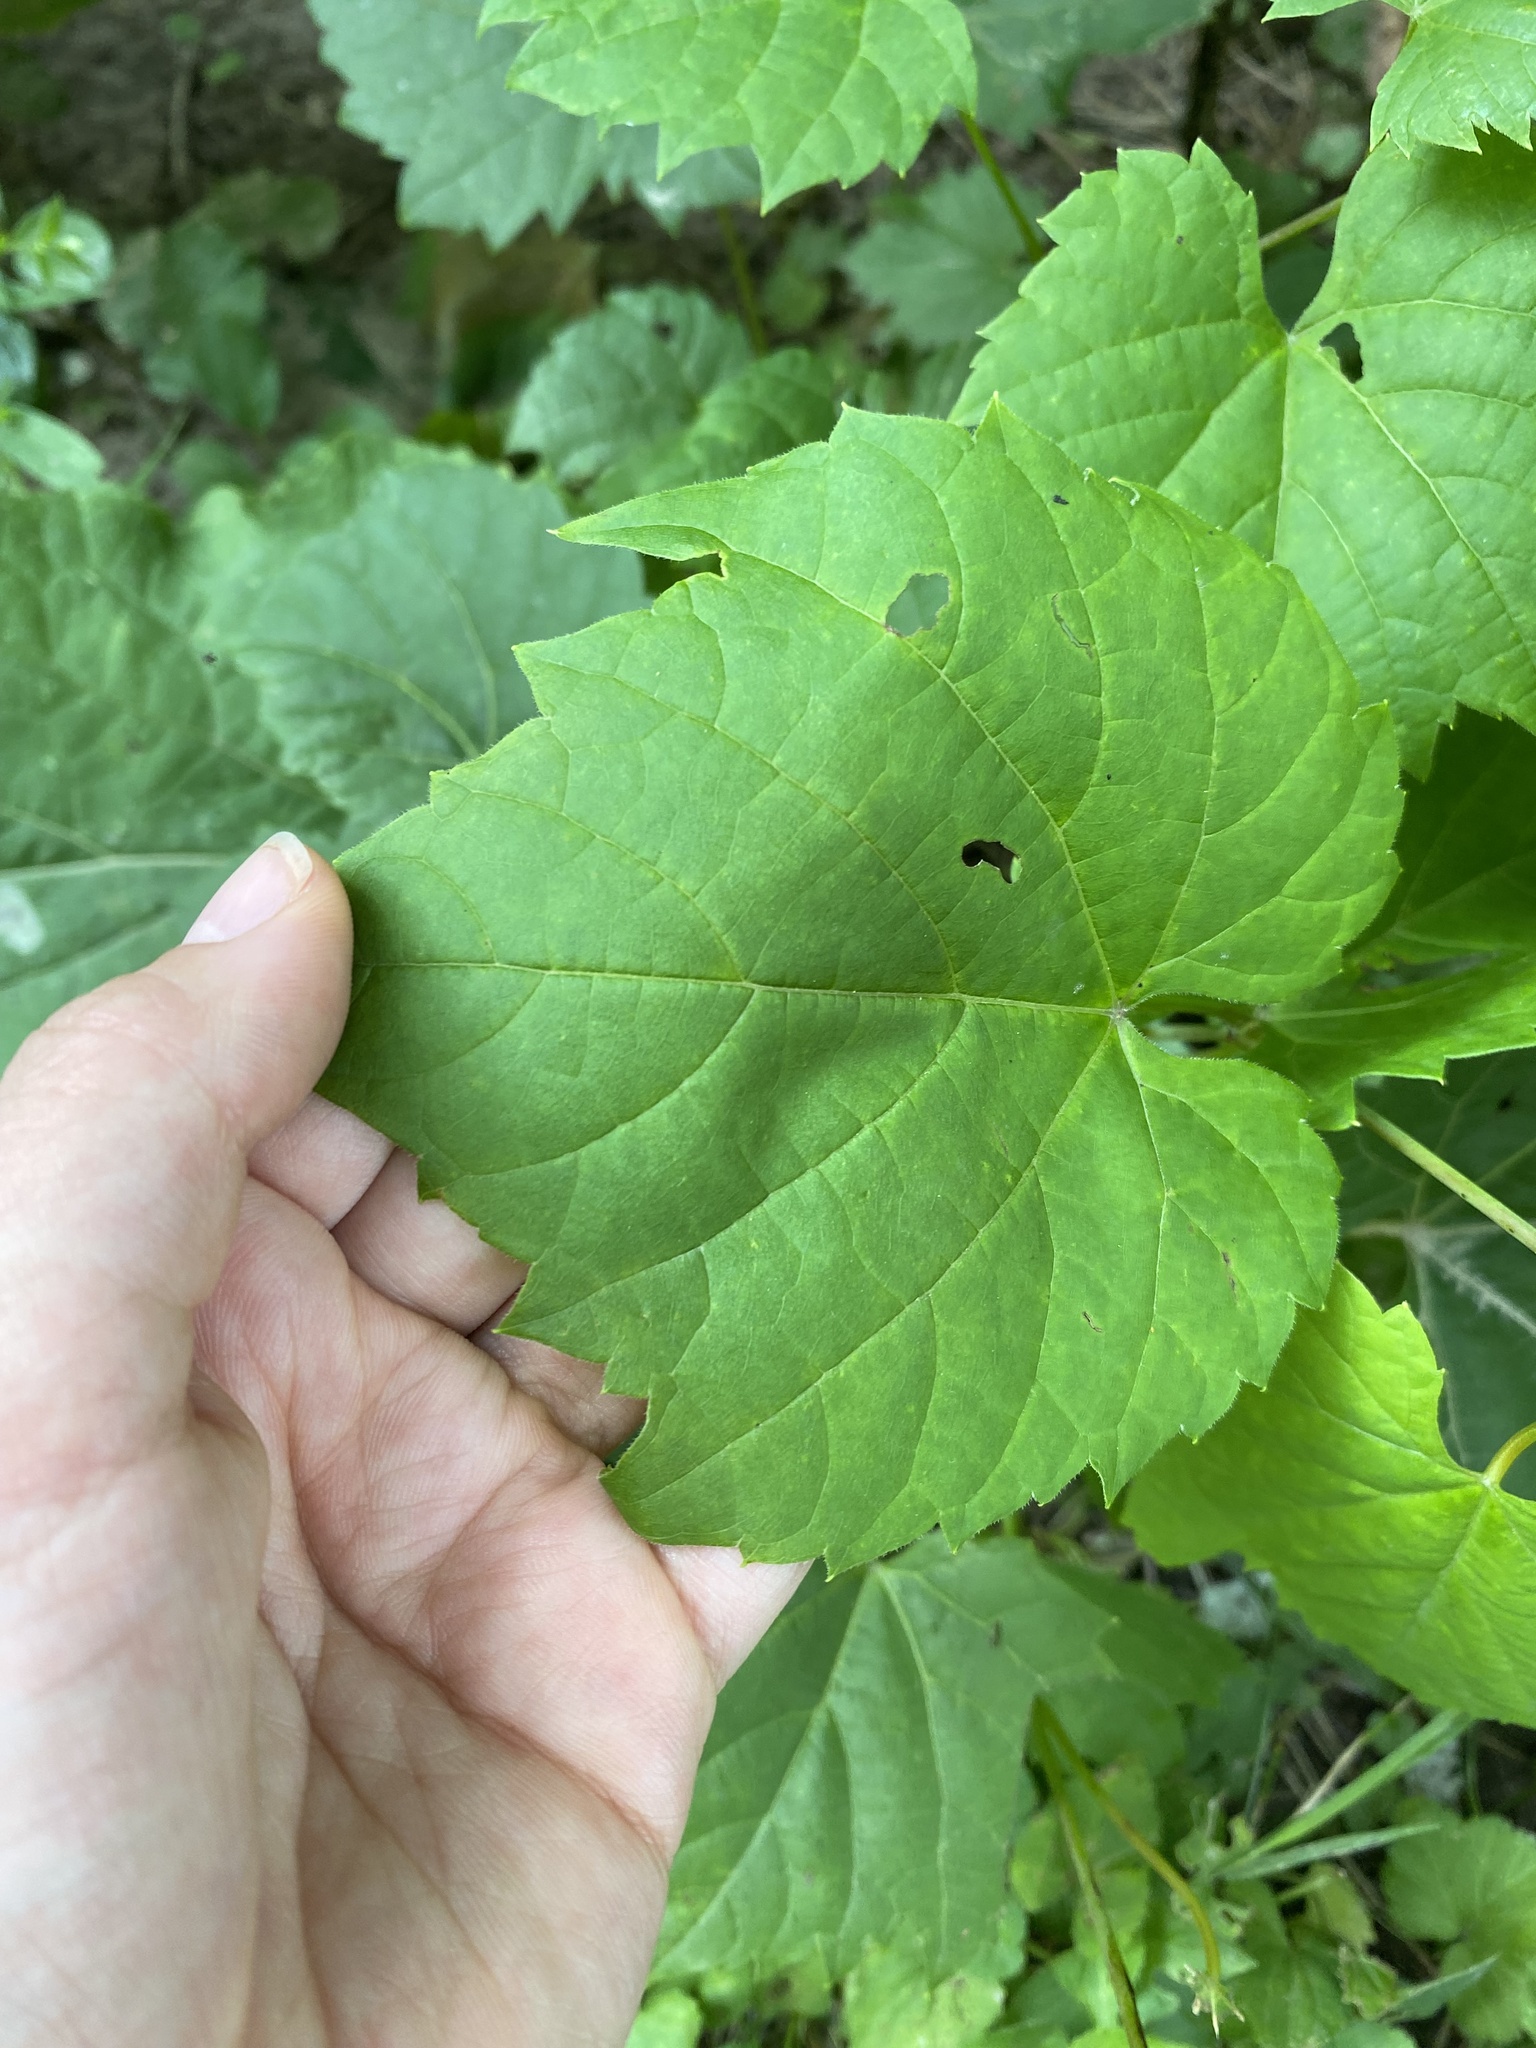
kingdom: Plantae
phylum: Tracheophyta
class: Magnoliopsida
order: Vitales
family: Vitaceae
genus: Vitis
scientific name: Vitis riparia
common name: Frost grape
